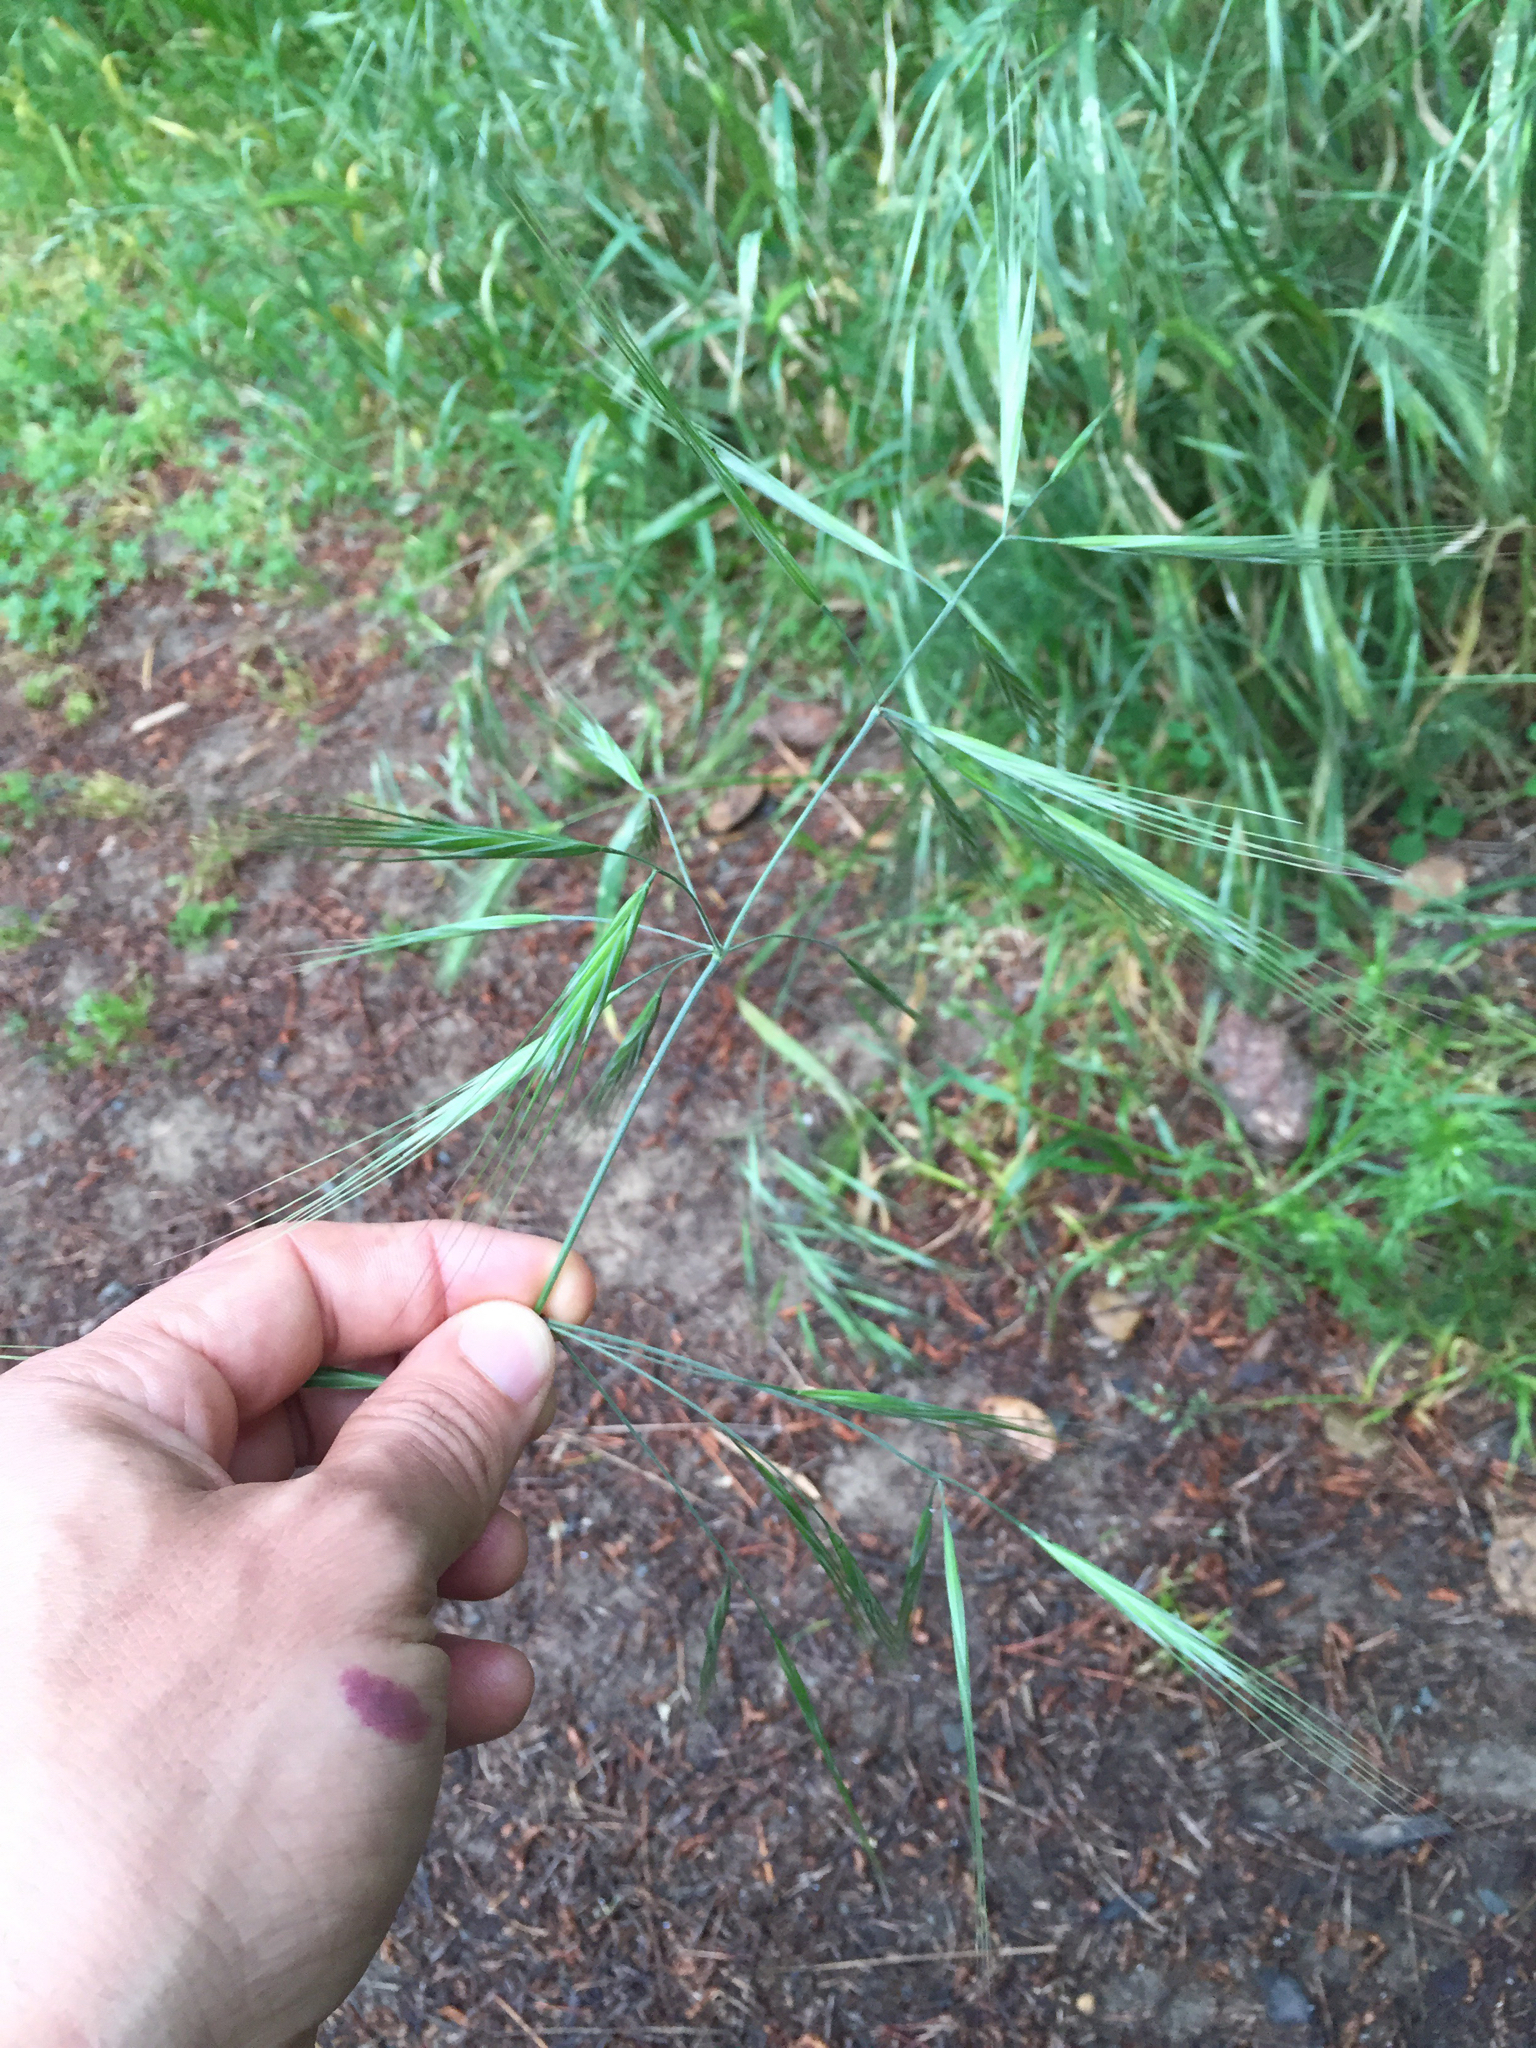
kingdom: Plantae
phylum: Tracheophyta
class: Liliopsida
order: Poales
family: Poaceae
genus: Bromus
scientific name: Bromus diandrus
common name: Ripgut brome
